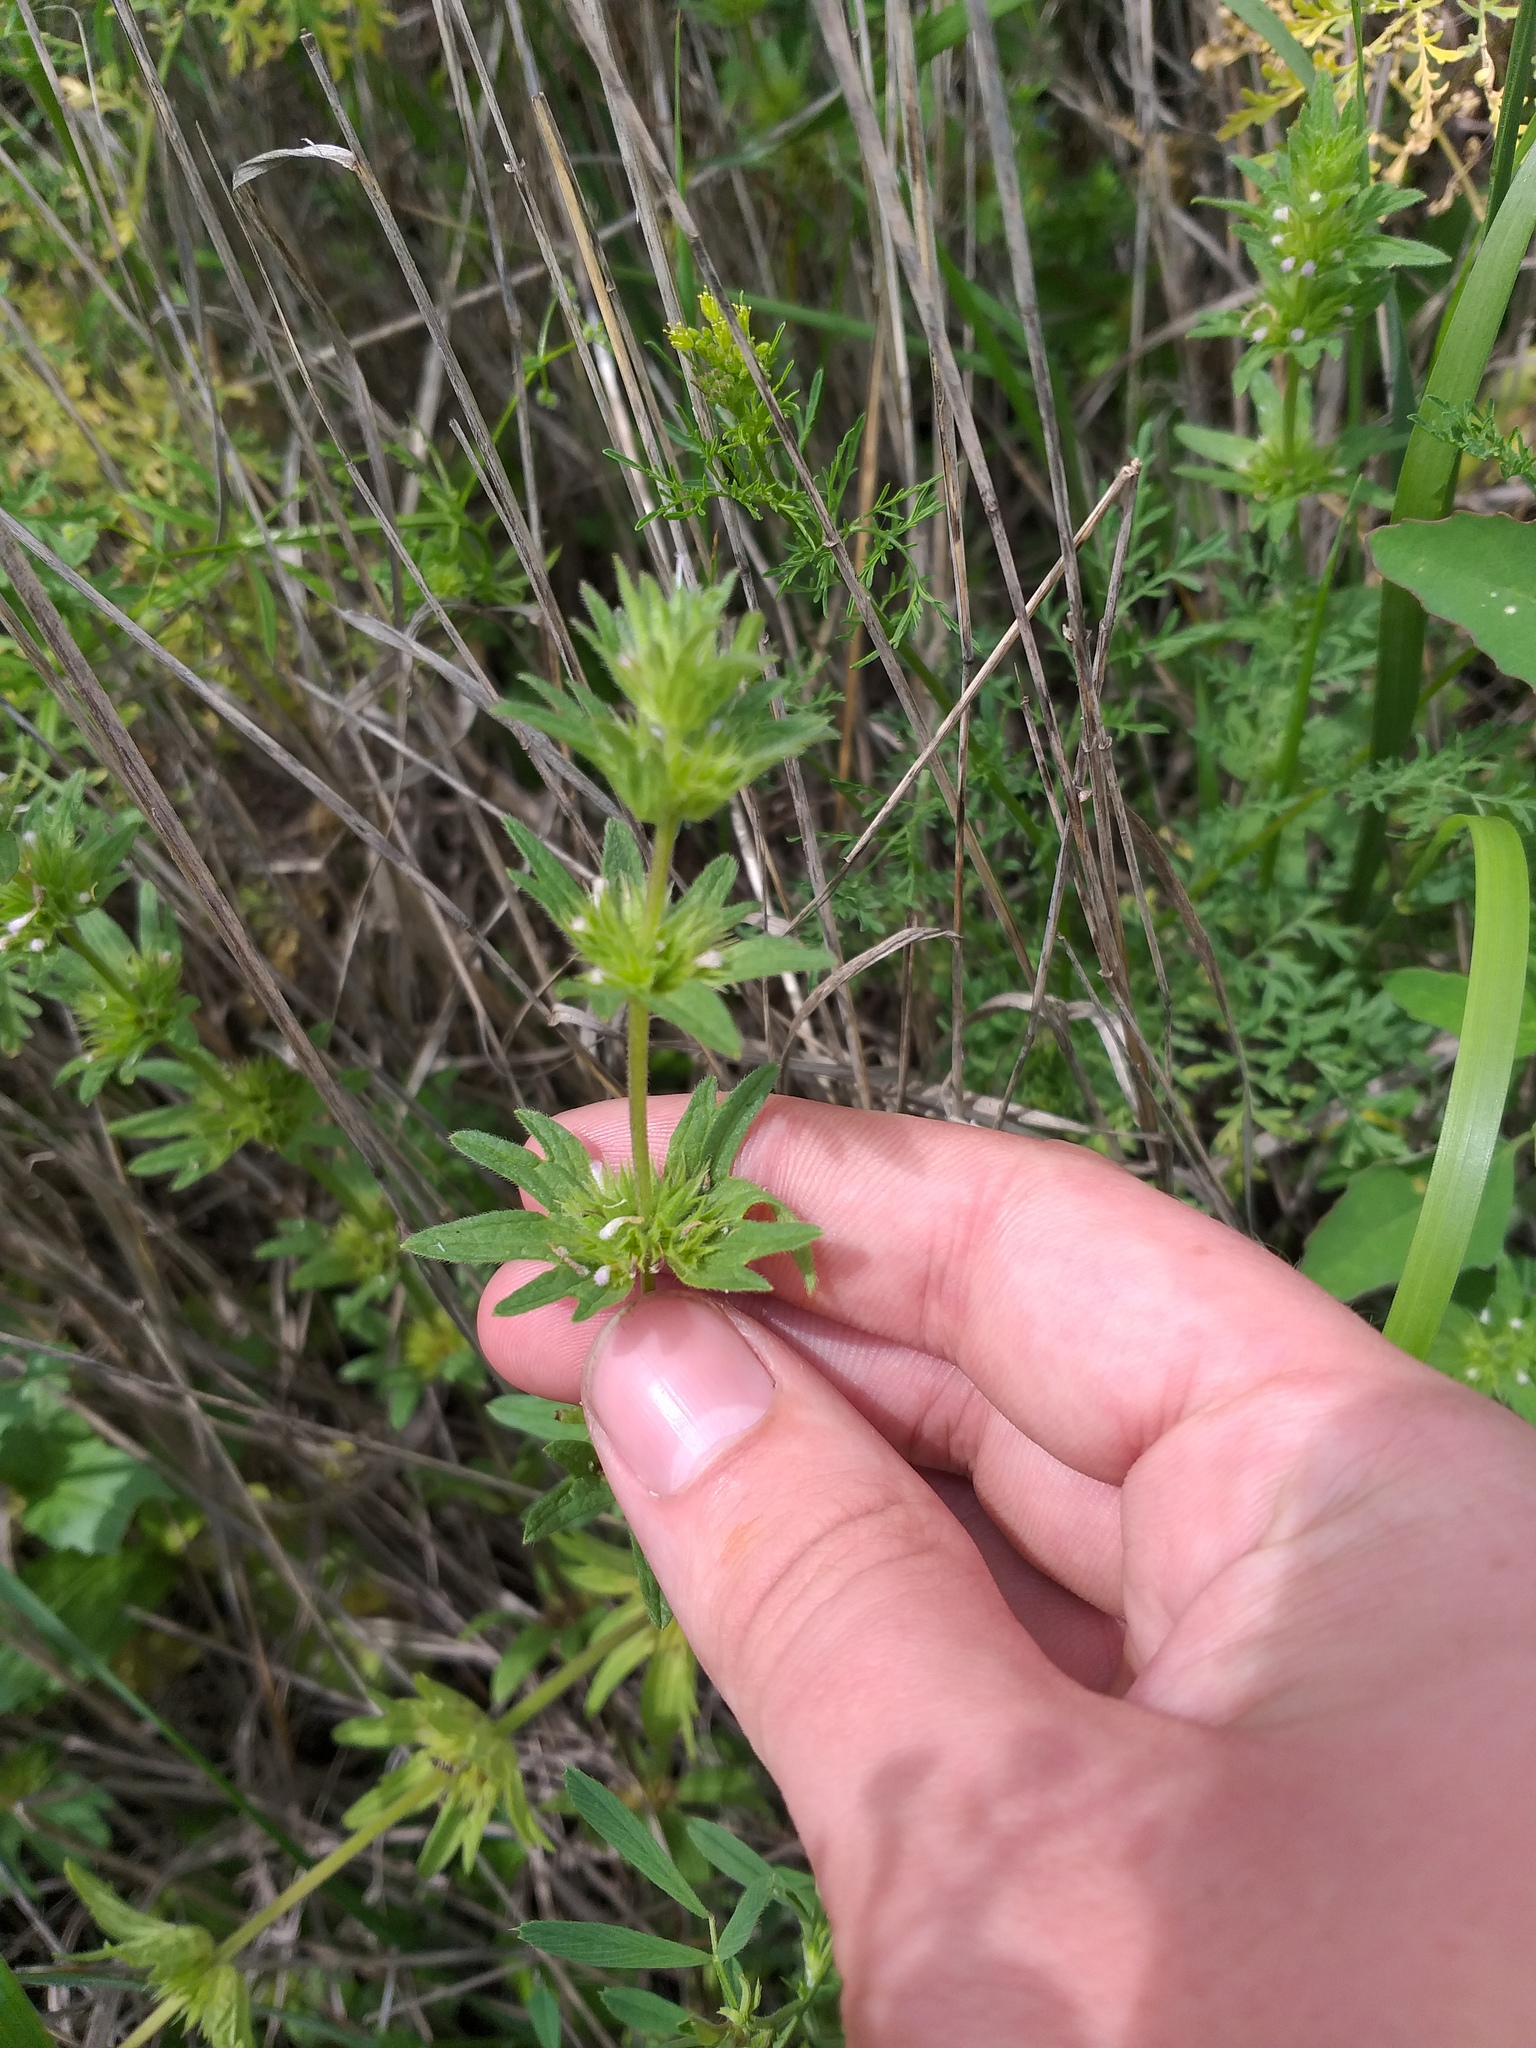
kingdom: Plantae
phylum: Tracheophyta
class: Magnoliopsida
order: Lamiales
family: Lamiaceae
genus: Lamium
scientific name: Lamium amplexicaule
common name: Henbit dead-nettle
